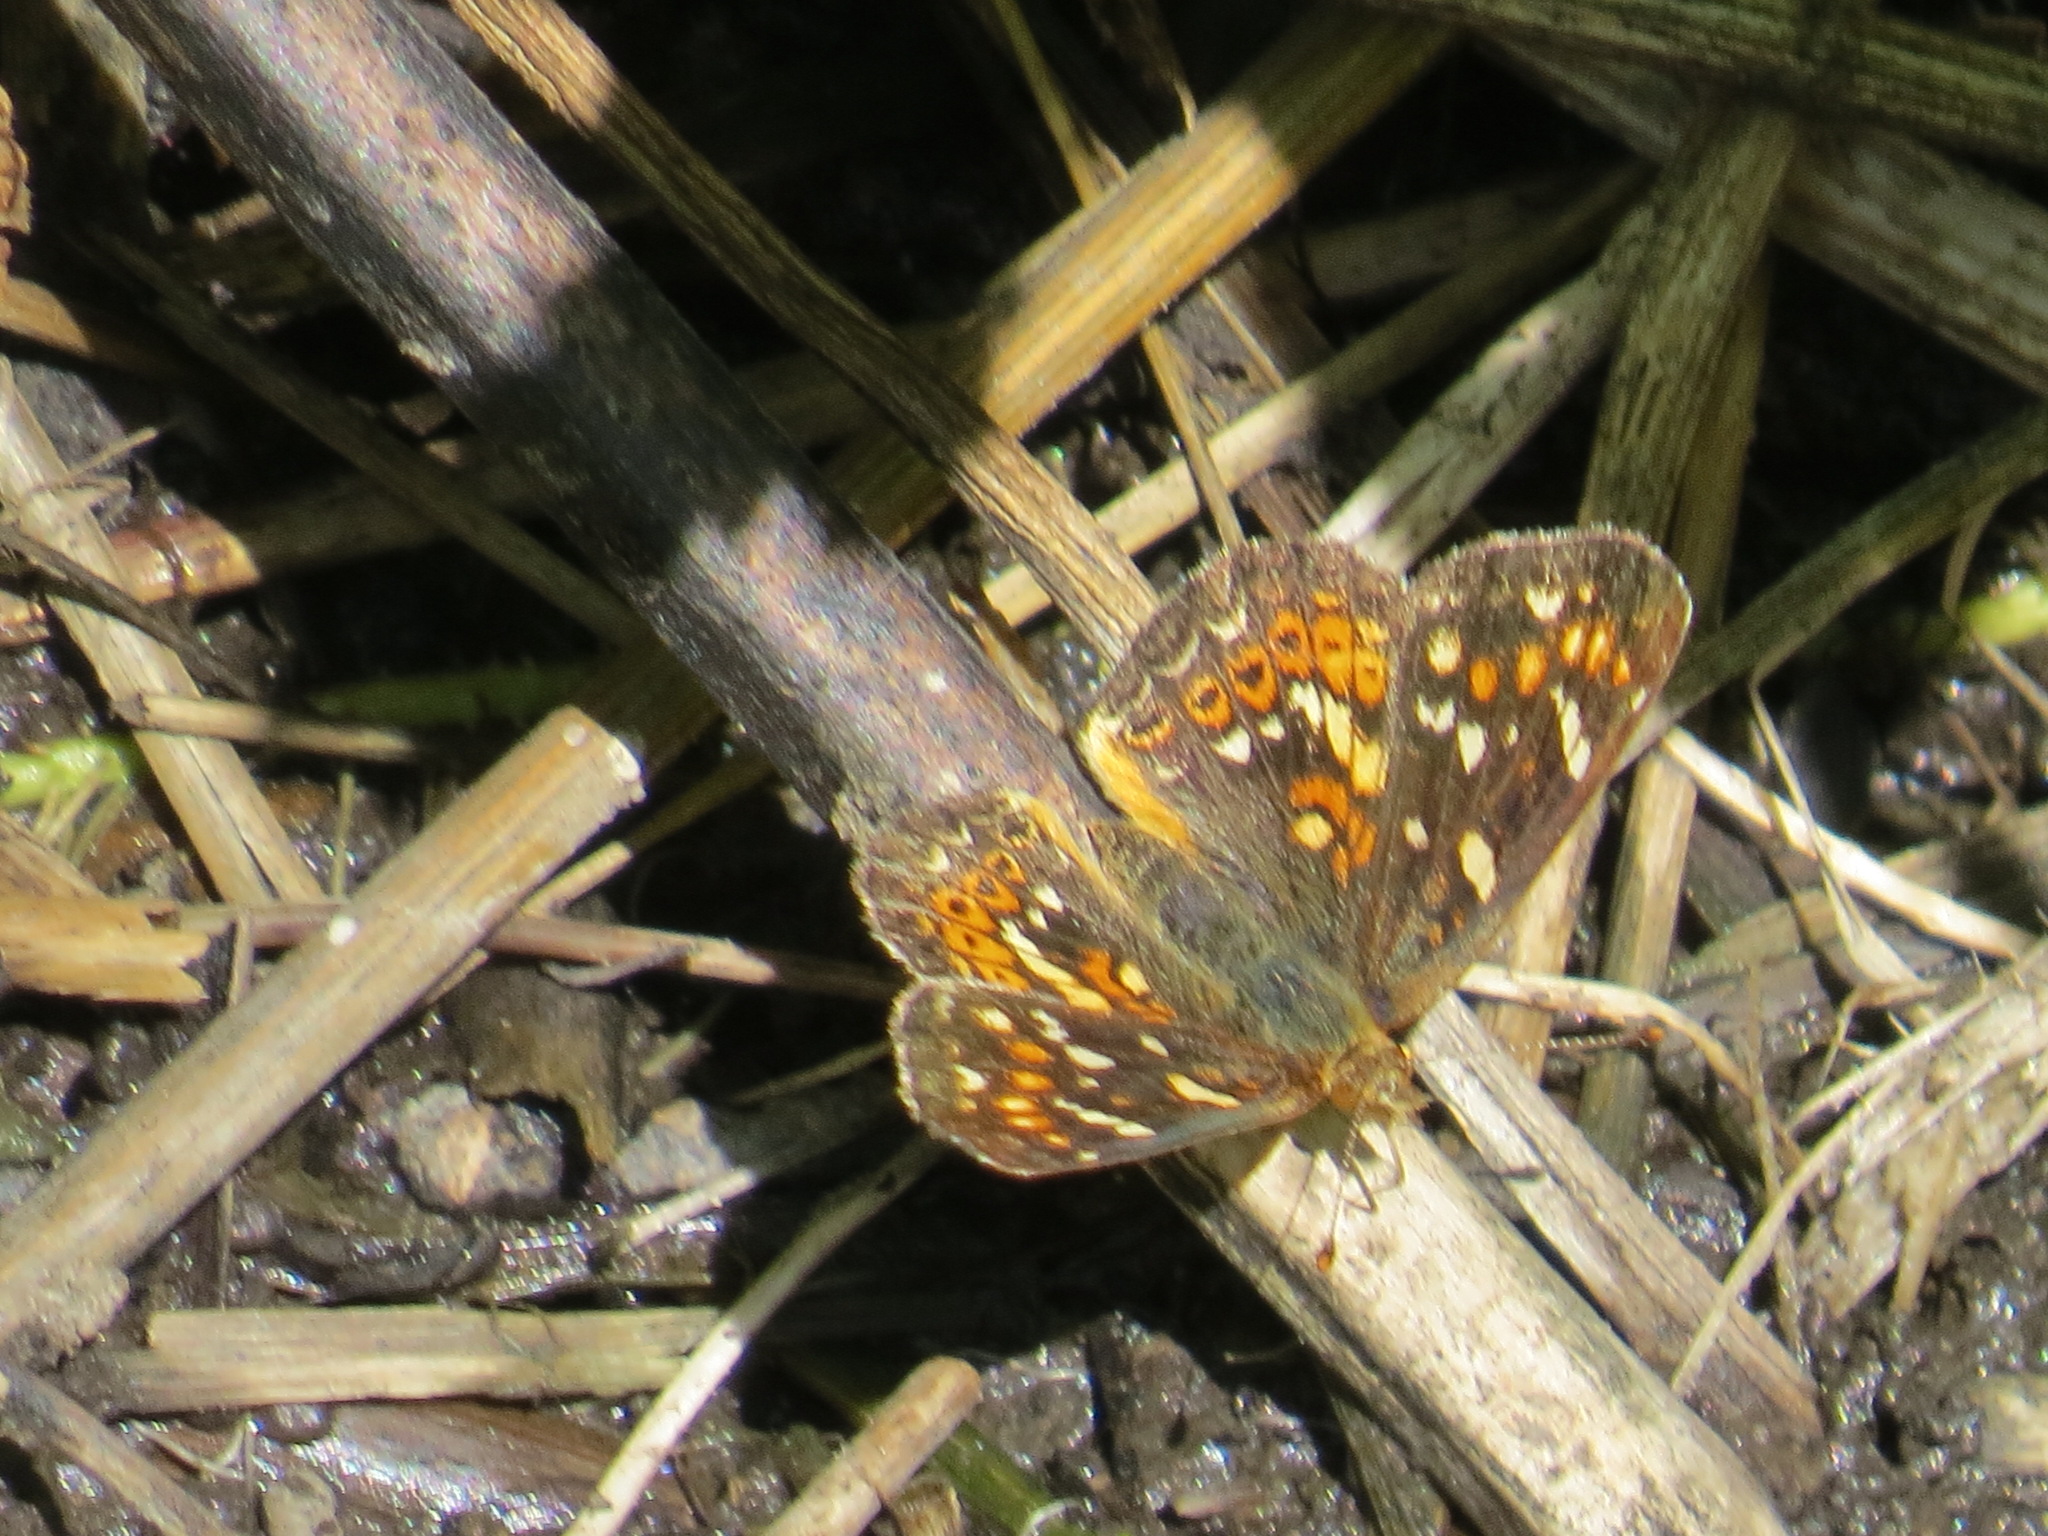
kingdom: Animalia
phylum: Arthropoda
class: Insecta
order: Lepidoptera
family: Nymphalidae
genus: Phyciodes
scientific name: Phyciodes tharos
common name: Pearl crescent
